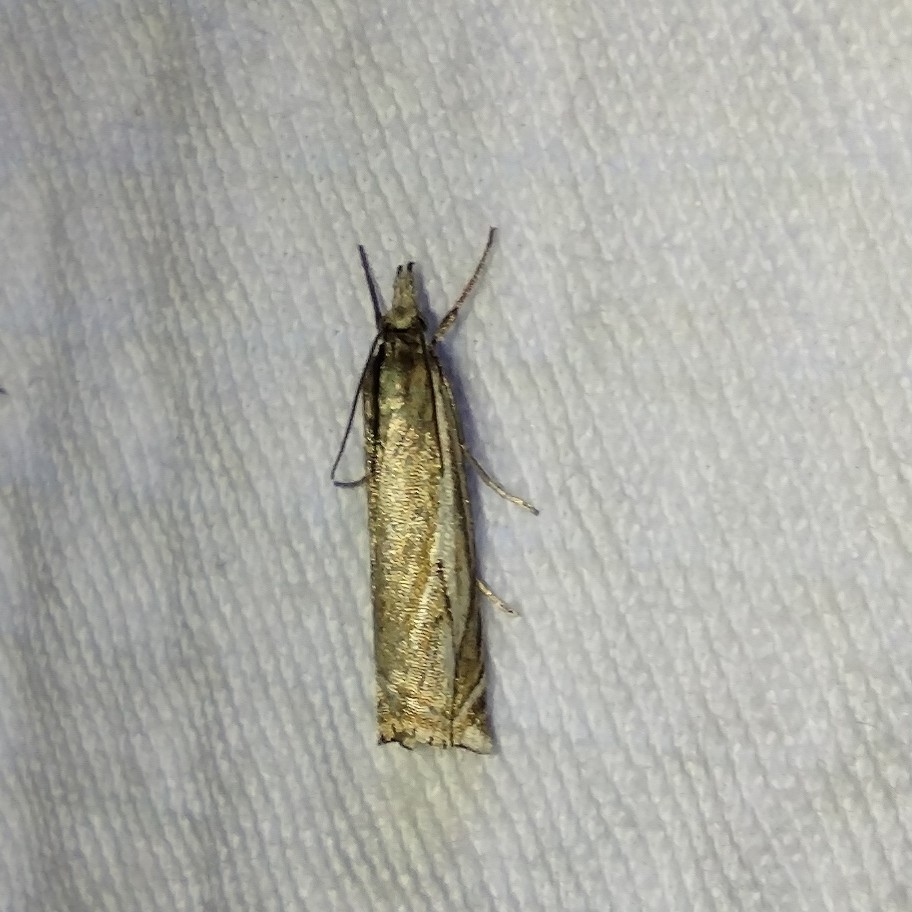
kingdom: Animalia
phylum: Arthropoda
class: Insecta
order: Lepidoptera
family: Crambidae
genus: Crambus
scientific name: Crambus nemorella
